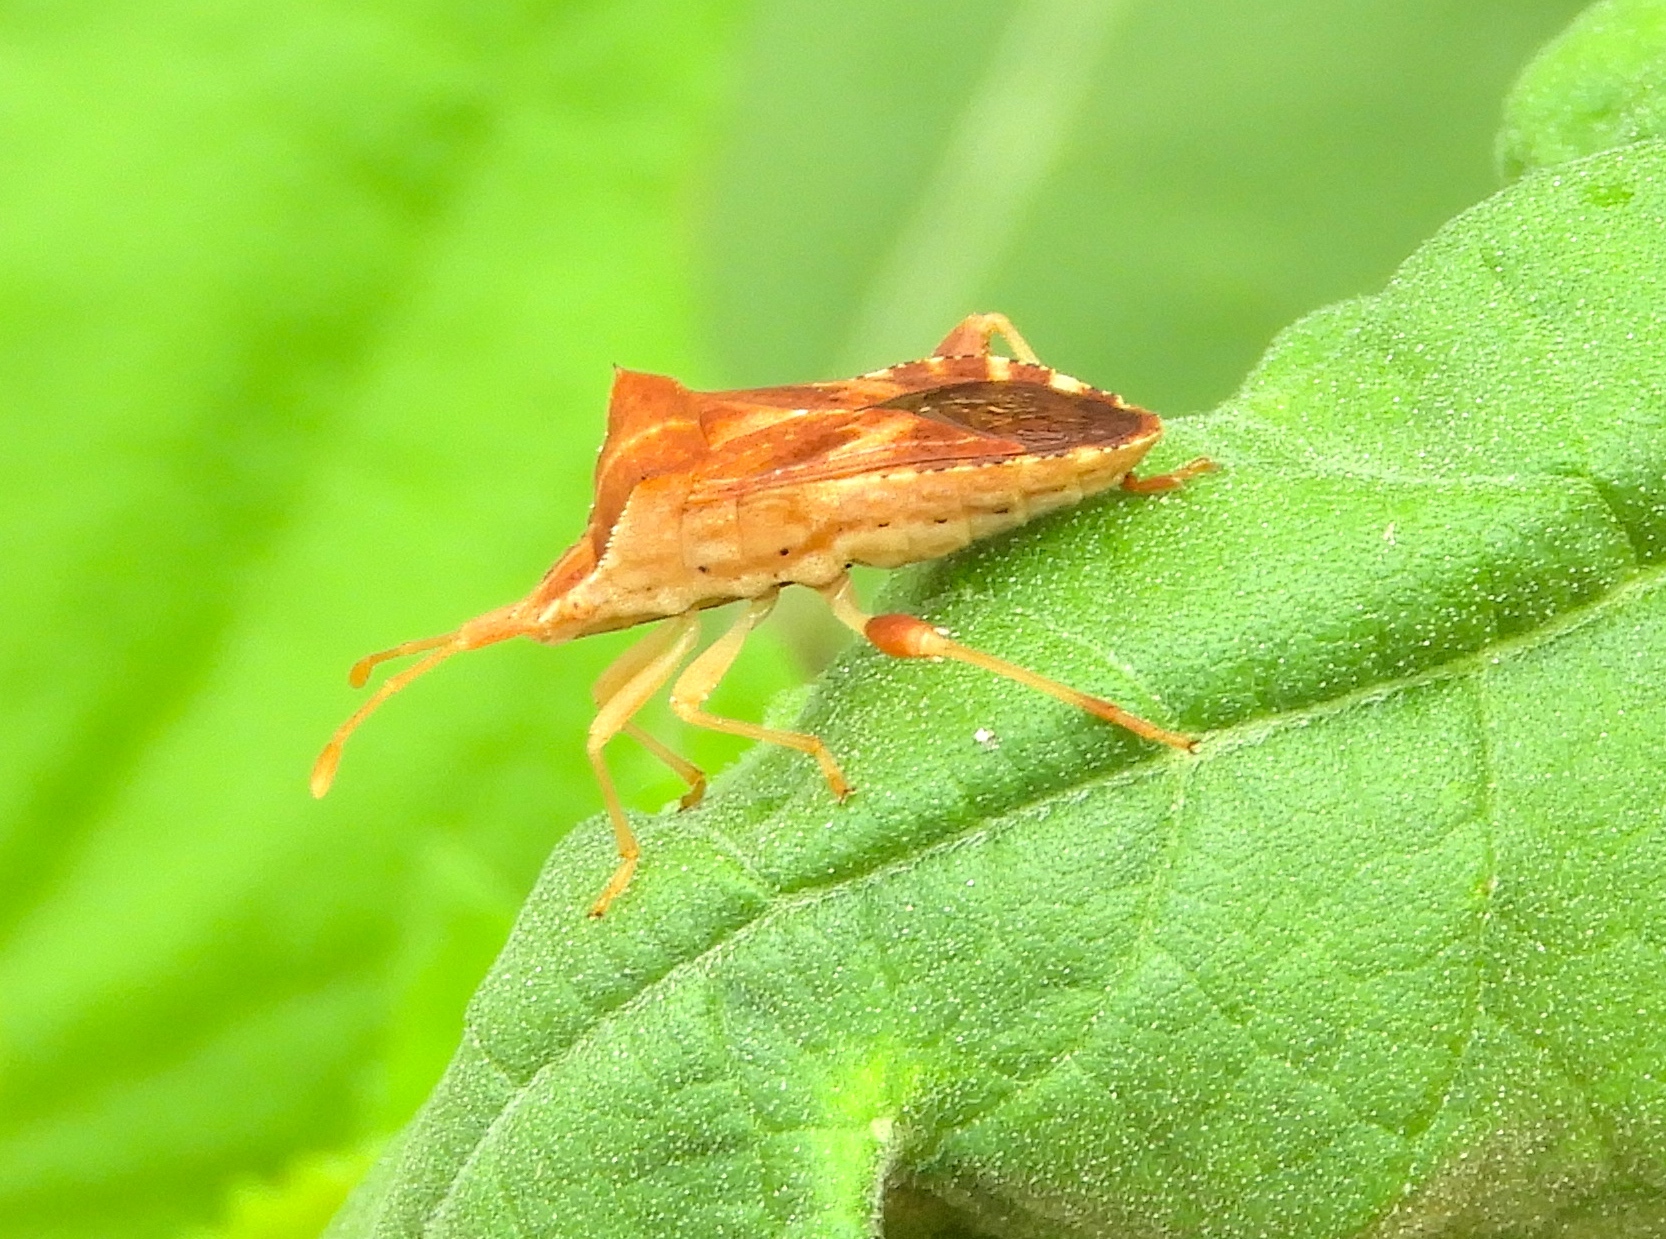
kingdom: Animalia
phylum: Arthropoda
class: Insecta
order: Hemiptera
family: Coreidae
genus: Dalmatomammurius
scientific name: Dalmatomammurius heissi
